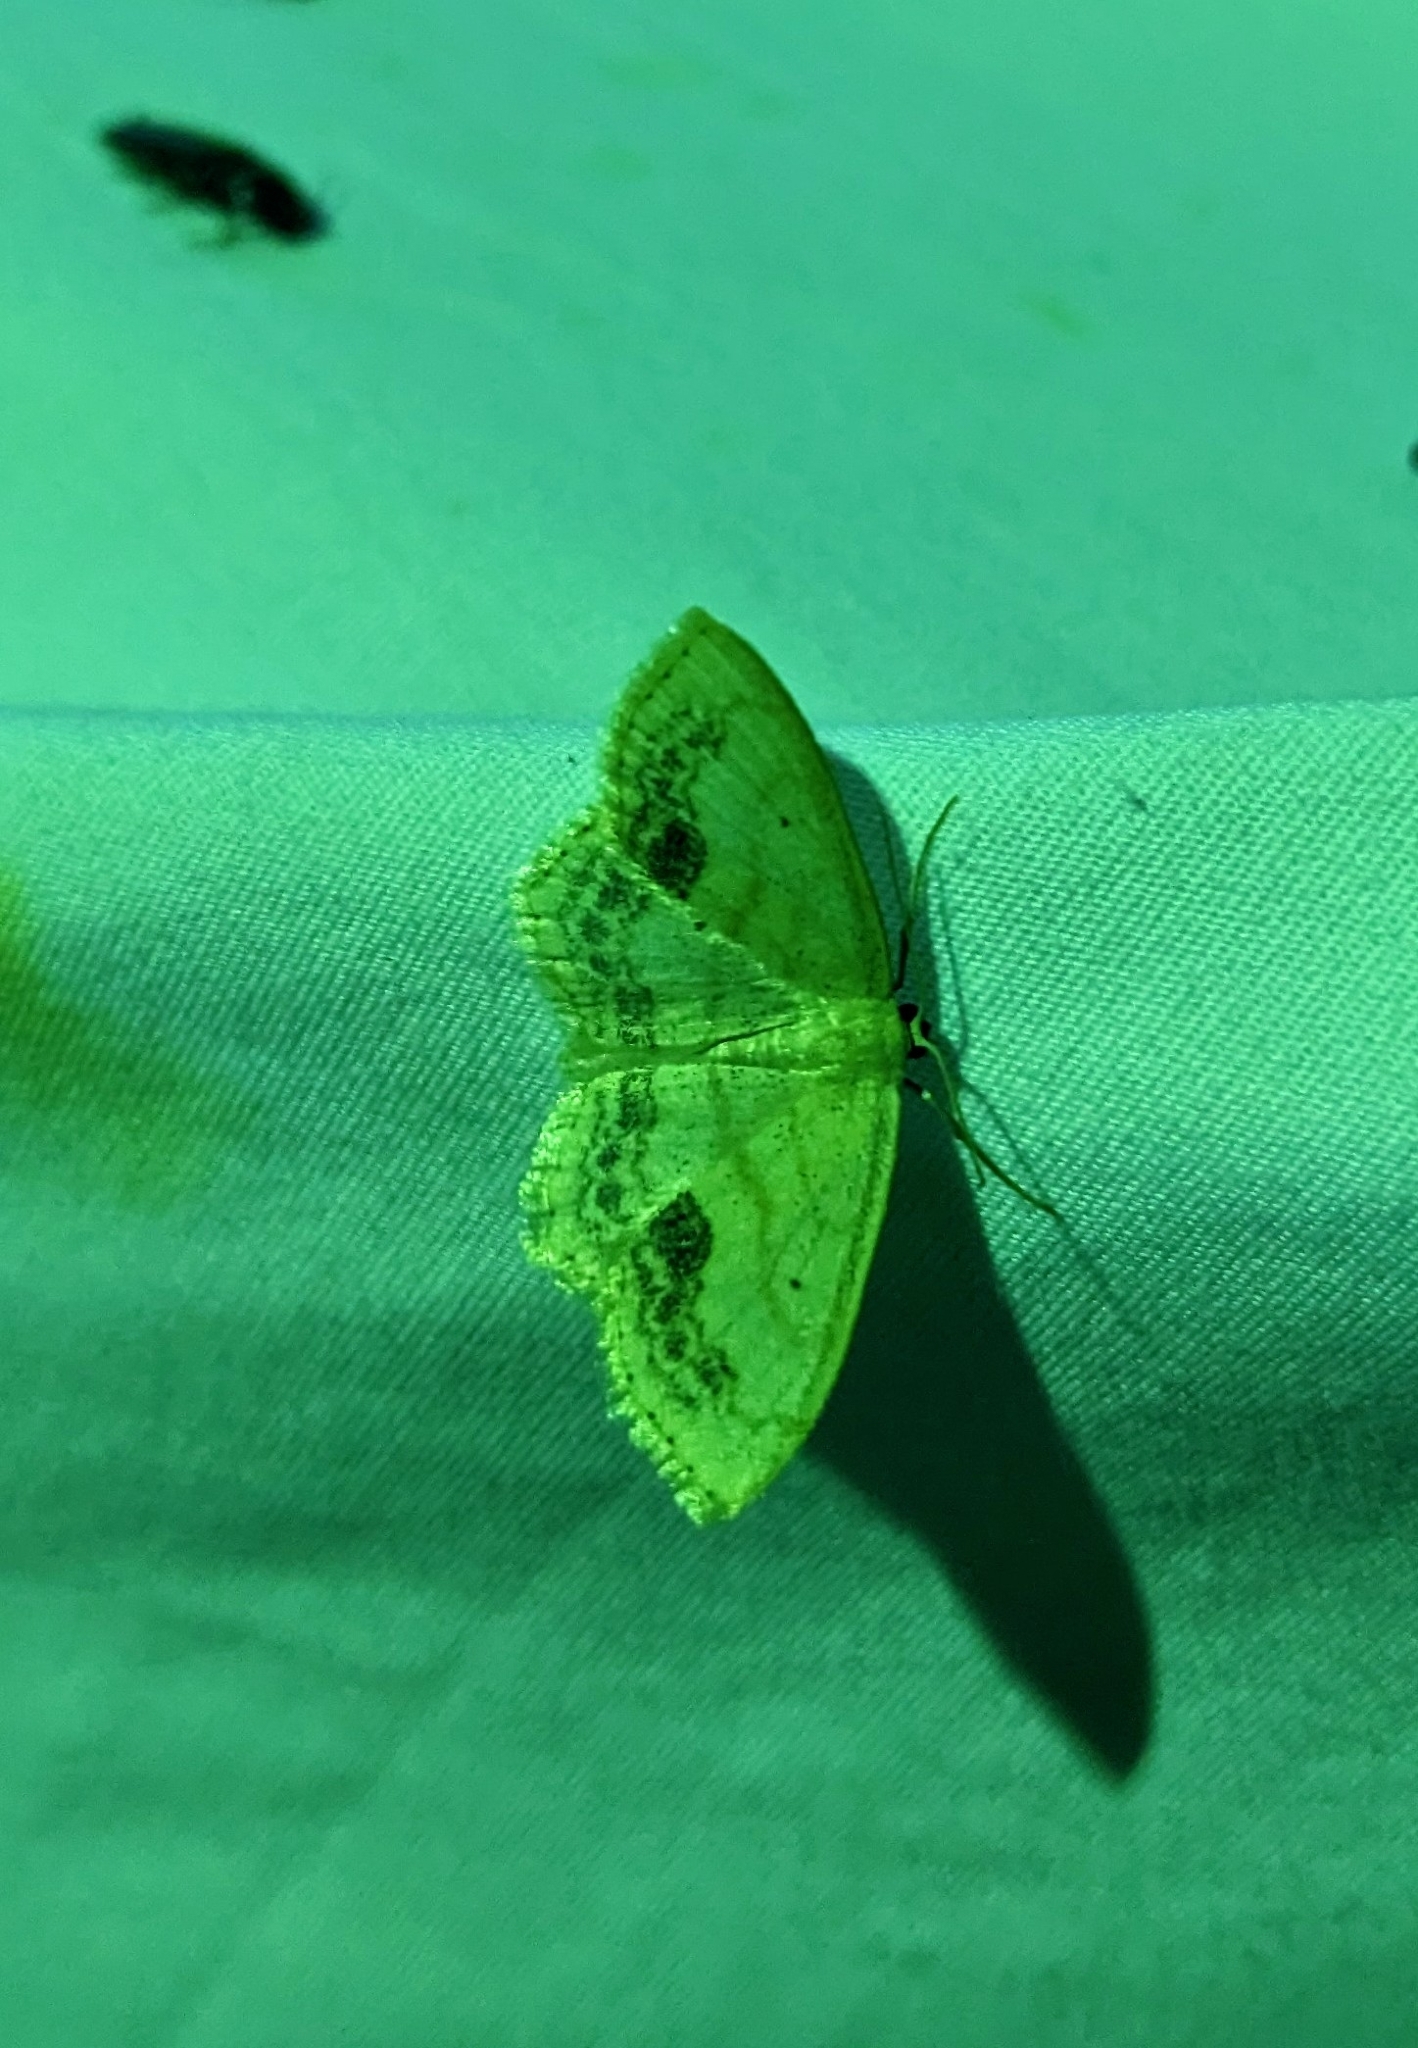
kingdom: Animalia
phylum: Arthropoda
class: Insecta
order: Lepidoptera
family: Geometridae
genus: Scopula
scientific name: Scopula limboundata
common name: Large lace border
